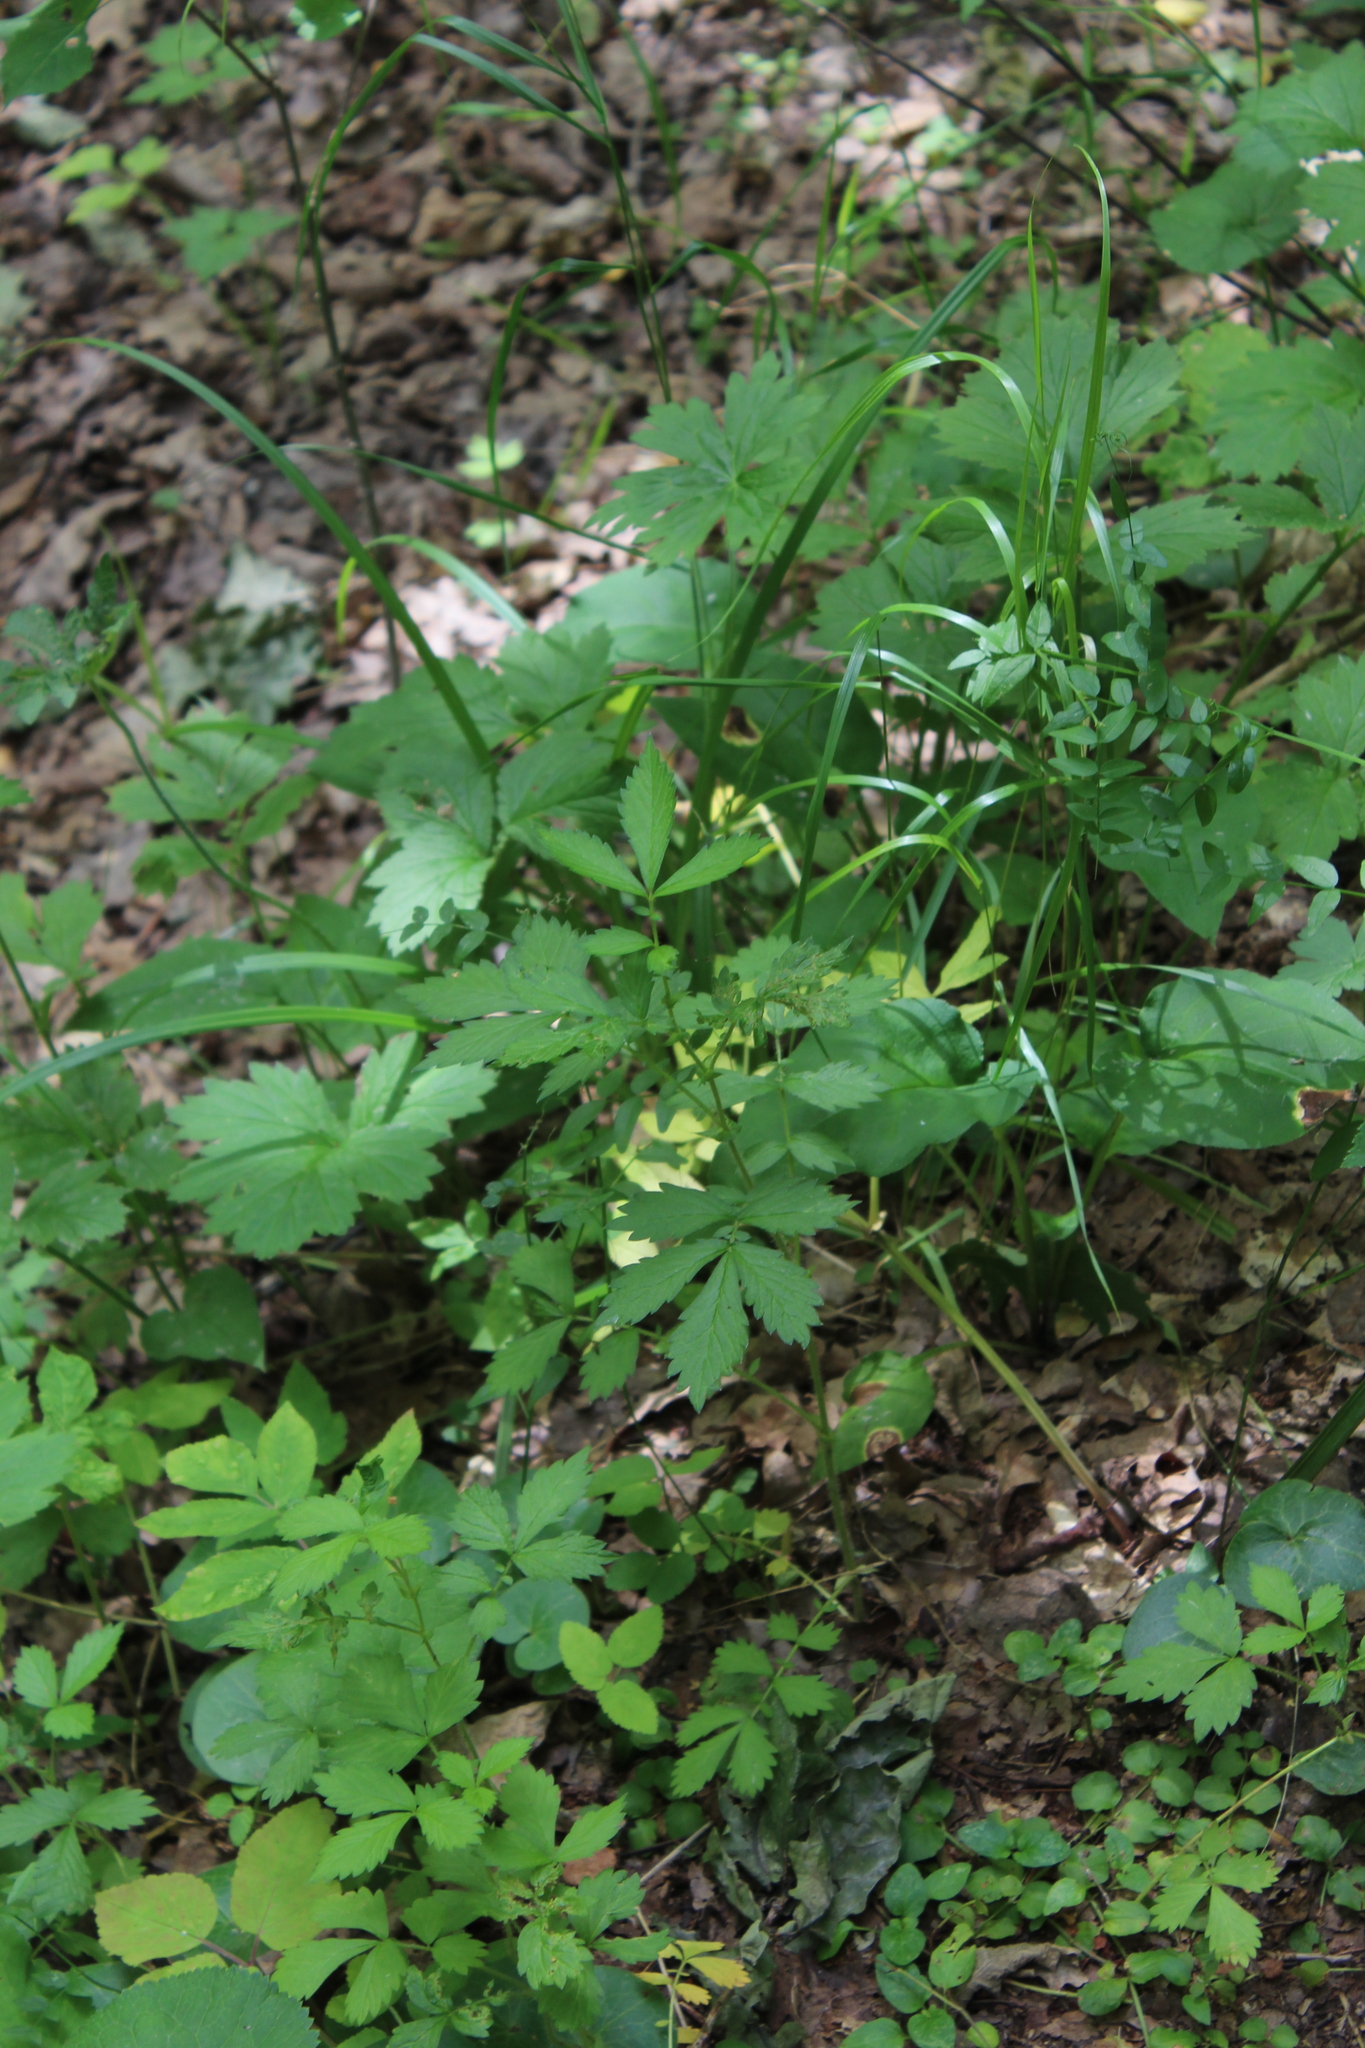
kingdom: Plantae
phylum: Tracheophyta
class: Magnoliopsida
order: Rosales
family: Rosaceae
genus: Agrimonia
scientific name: Agrimonia pilosa
